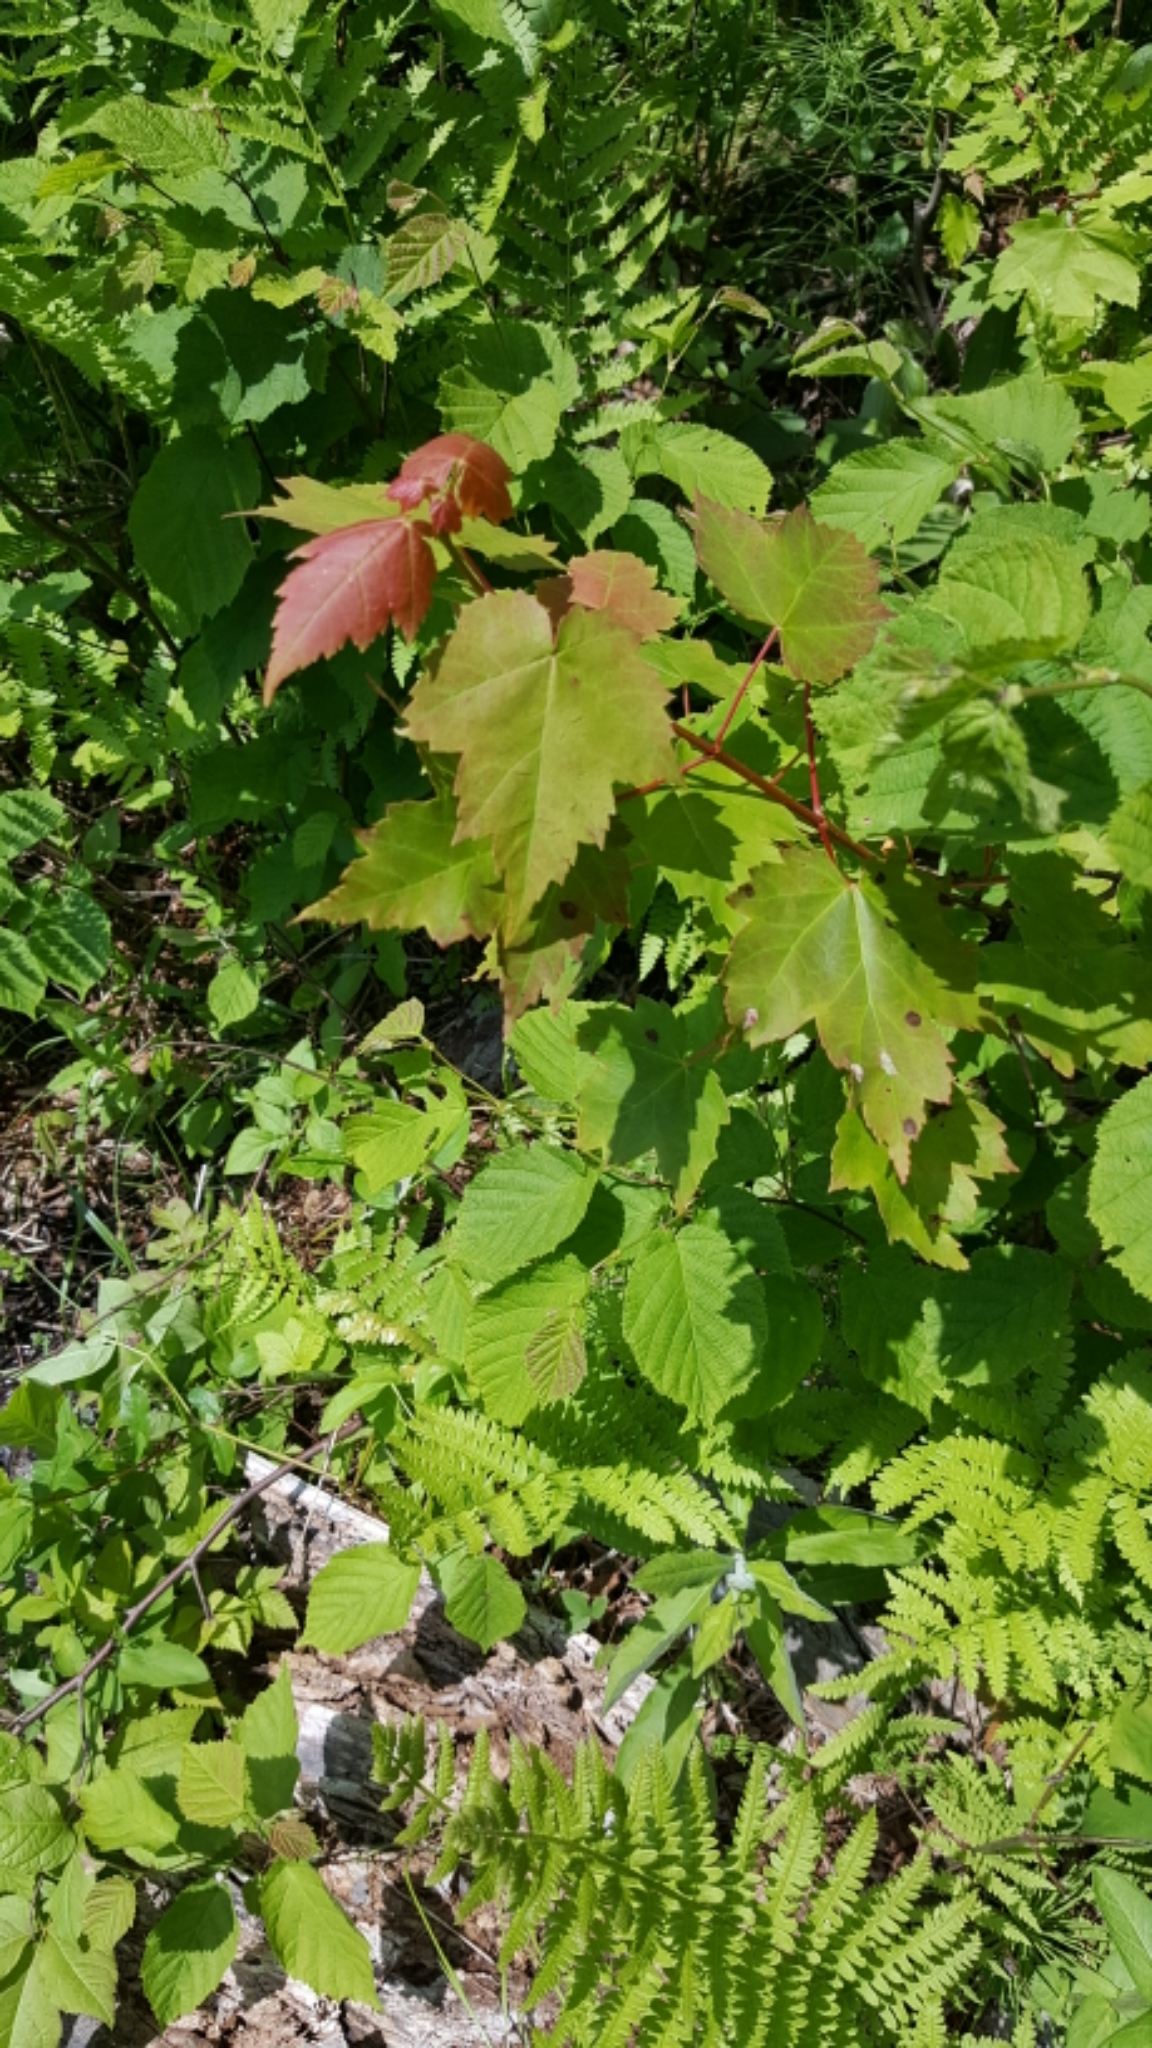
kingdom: Plantae
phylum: Tracheophyta
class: Magnoliopsida
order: Sapindales
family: Sapindaceae
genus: Acer
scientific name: Acer rubrum
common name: Red maple
